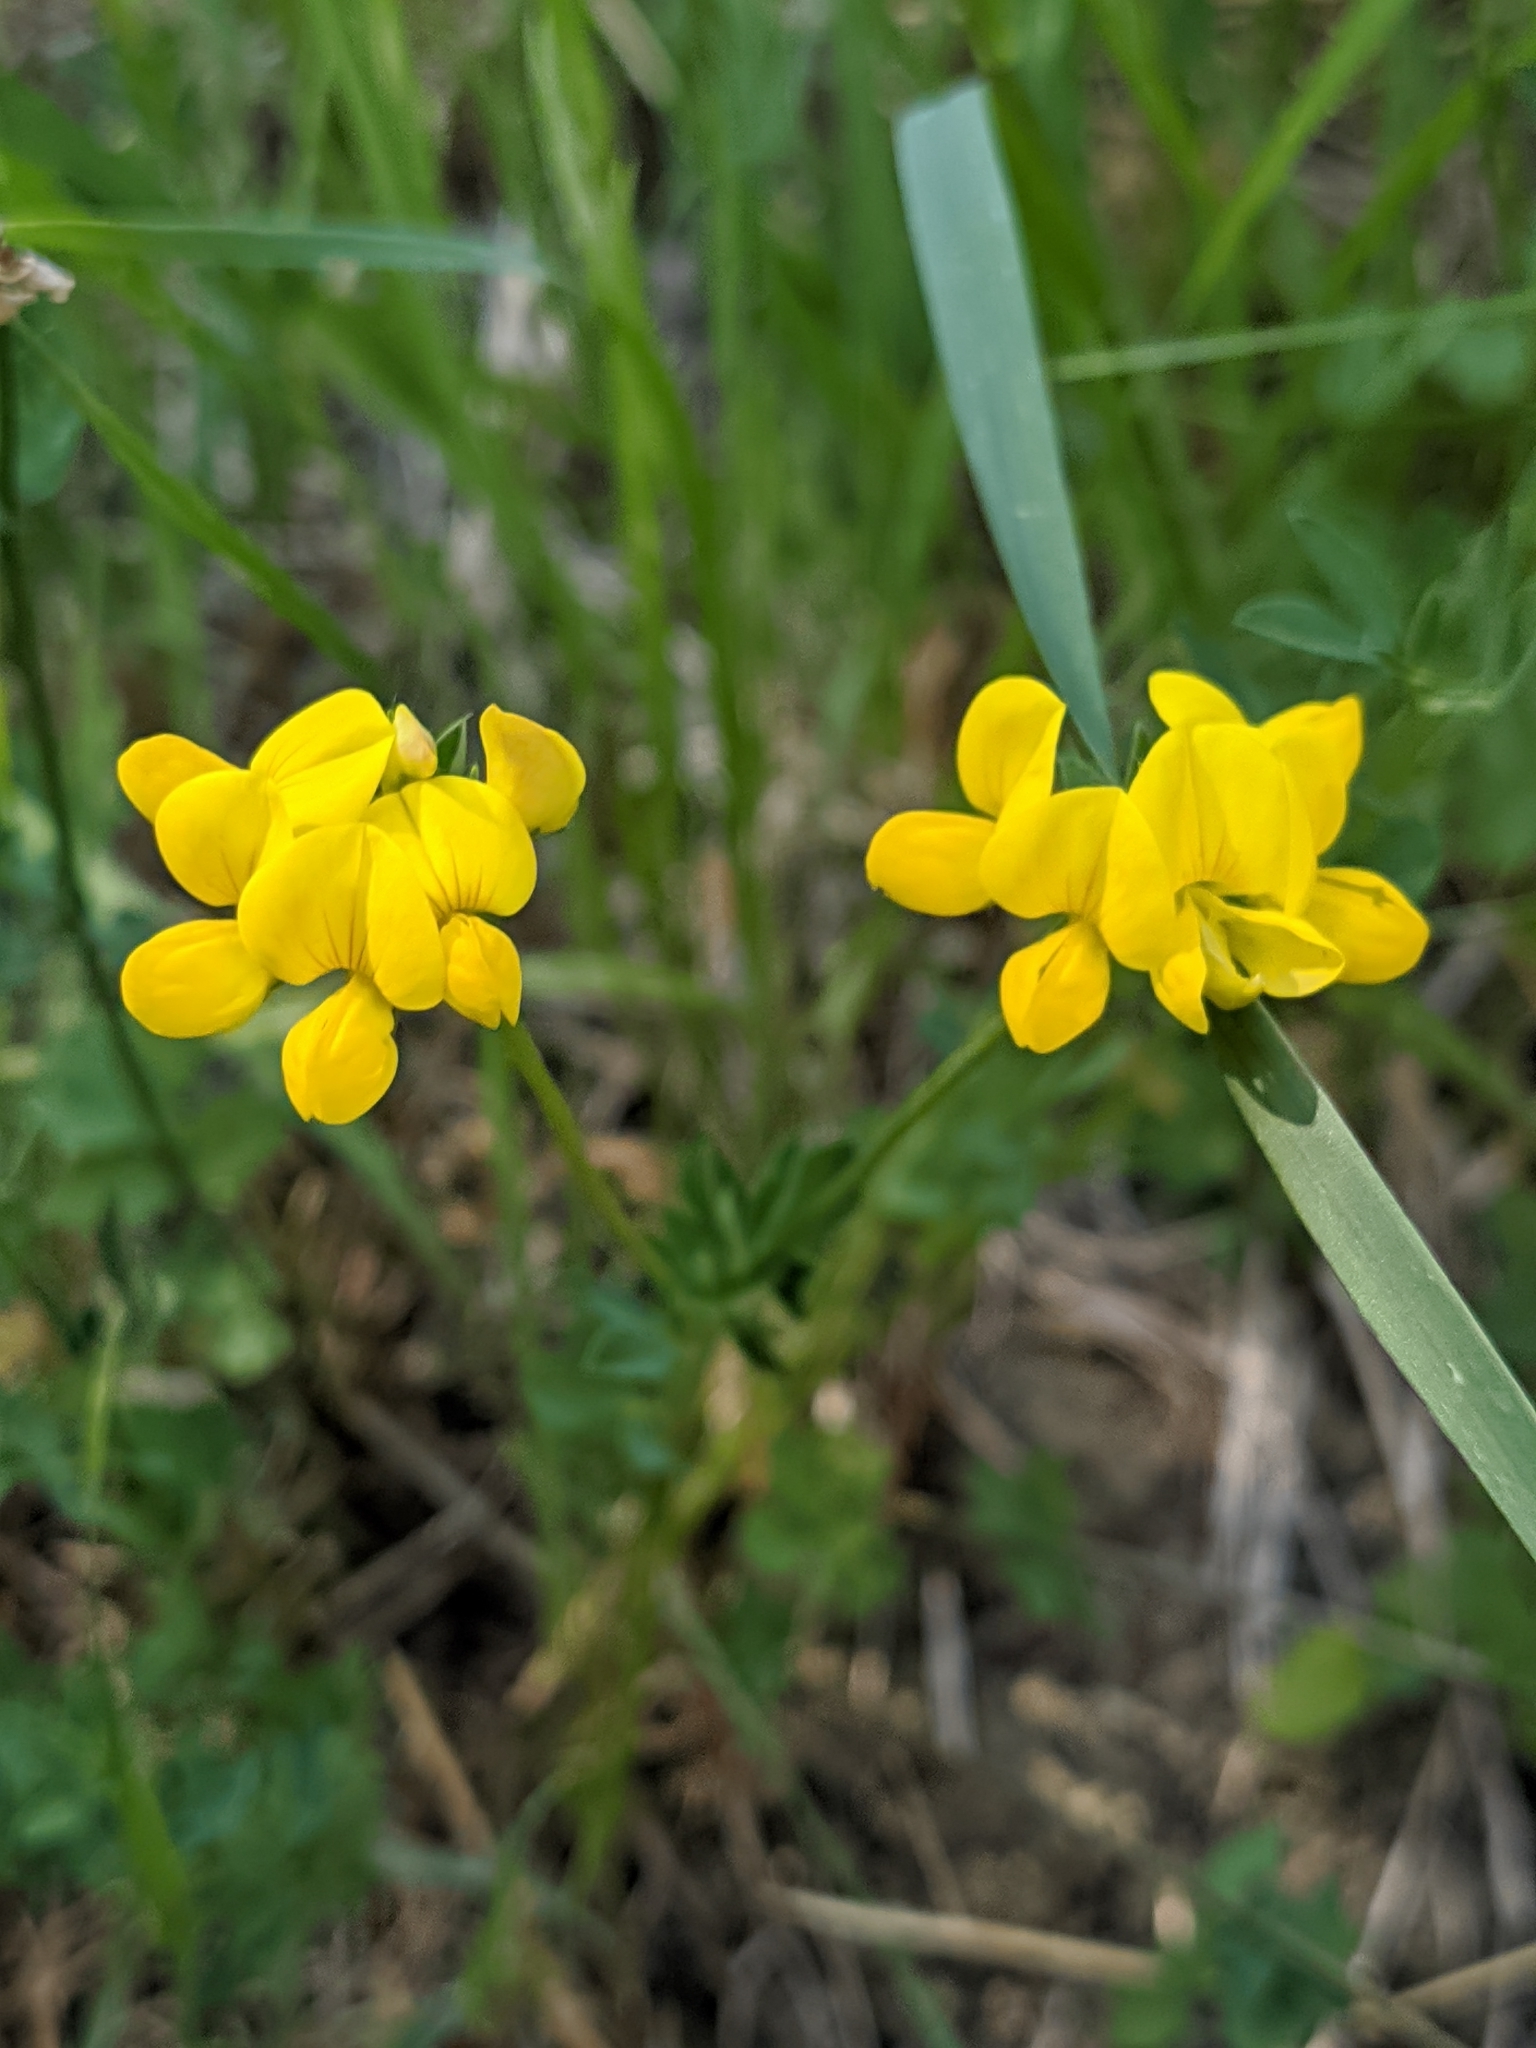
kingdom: Plantae
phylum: Tracheophyta
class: Magnoliopsida
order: Fabales
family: Fabaceae
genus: Lotus
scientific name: Lotus corniculatus
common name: Common bird's-foot-trefoil
